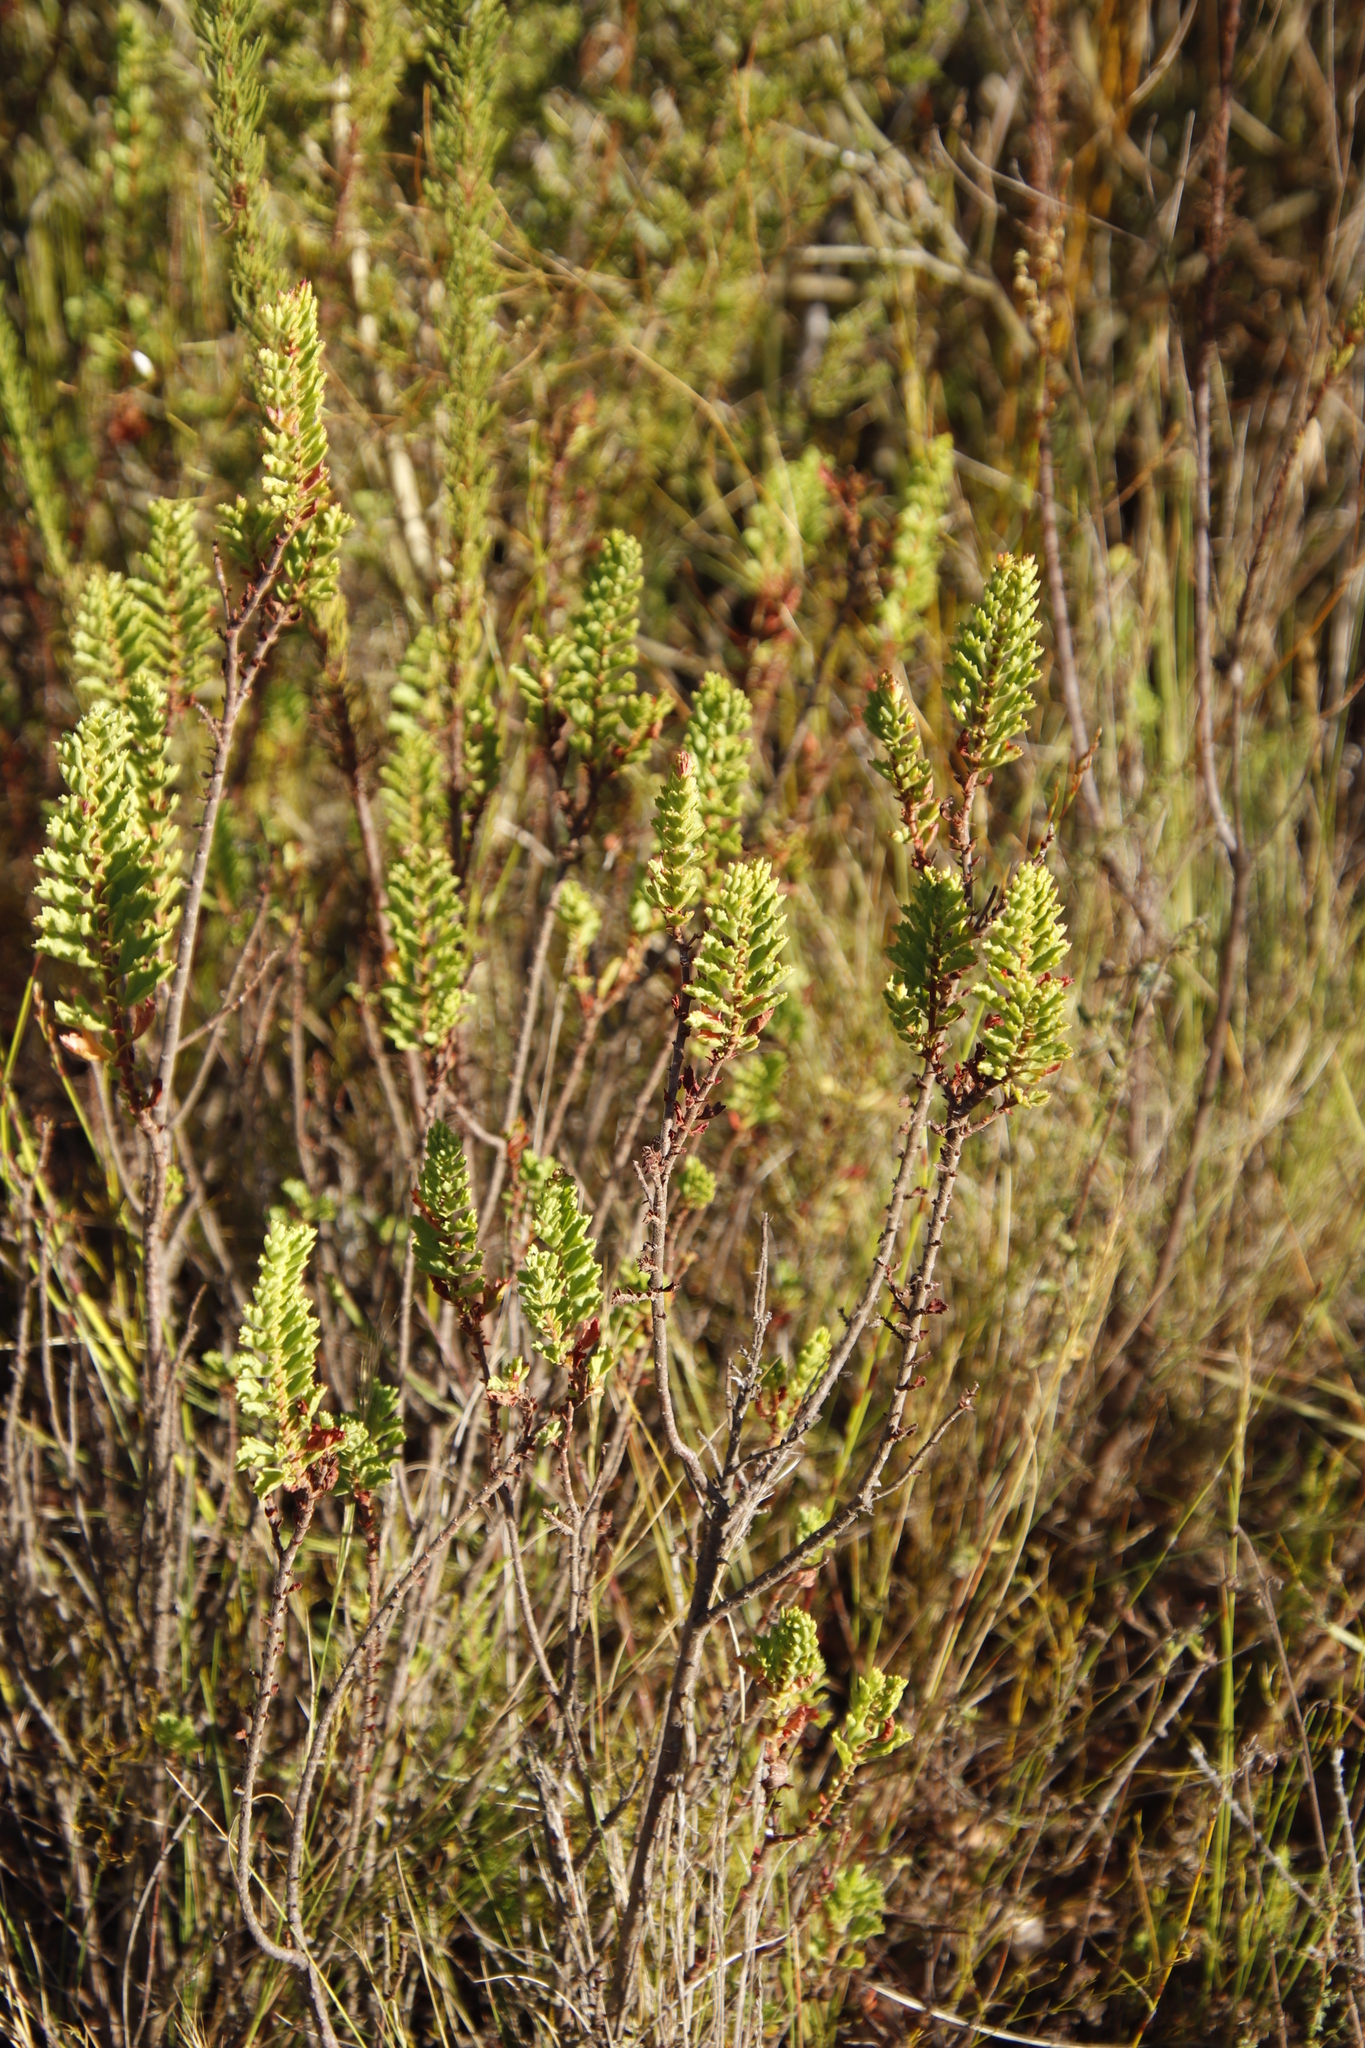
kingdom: Plantae
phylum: Tracheophyta
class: Magnoliopsida
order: Geraniales
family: Geraniaceae
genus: Pelargonium
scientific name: Pelargonium hermaniifolium
